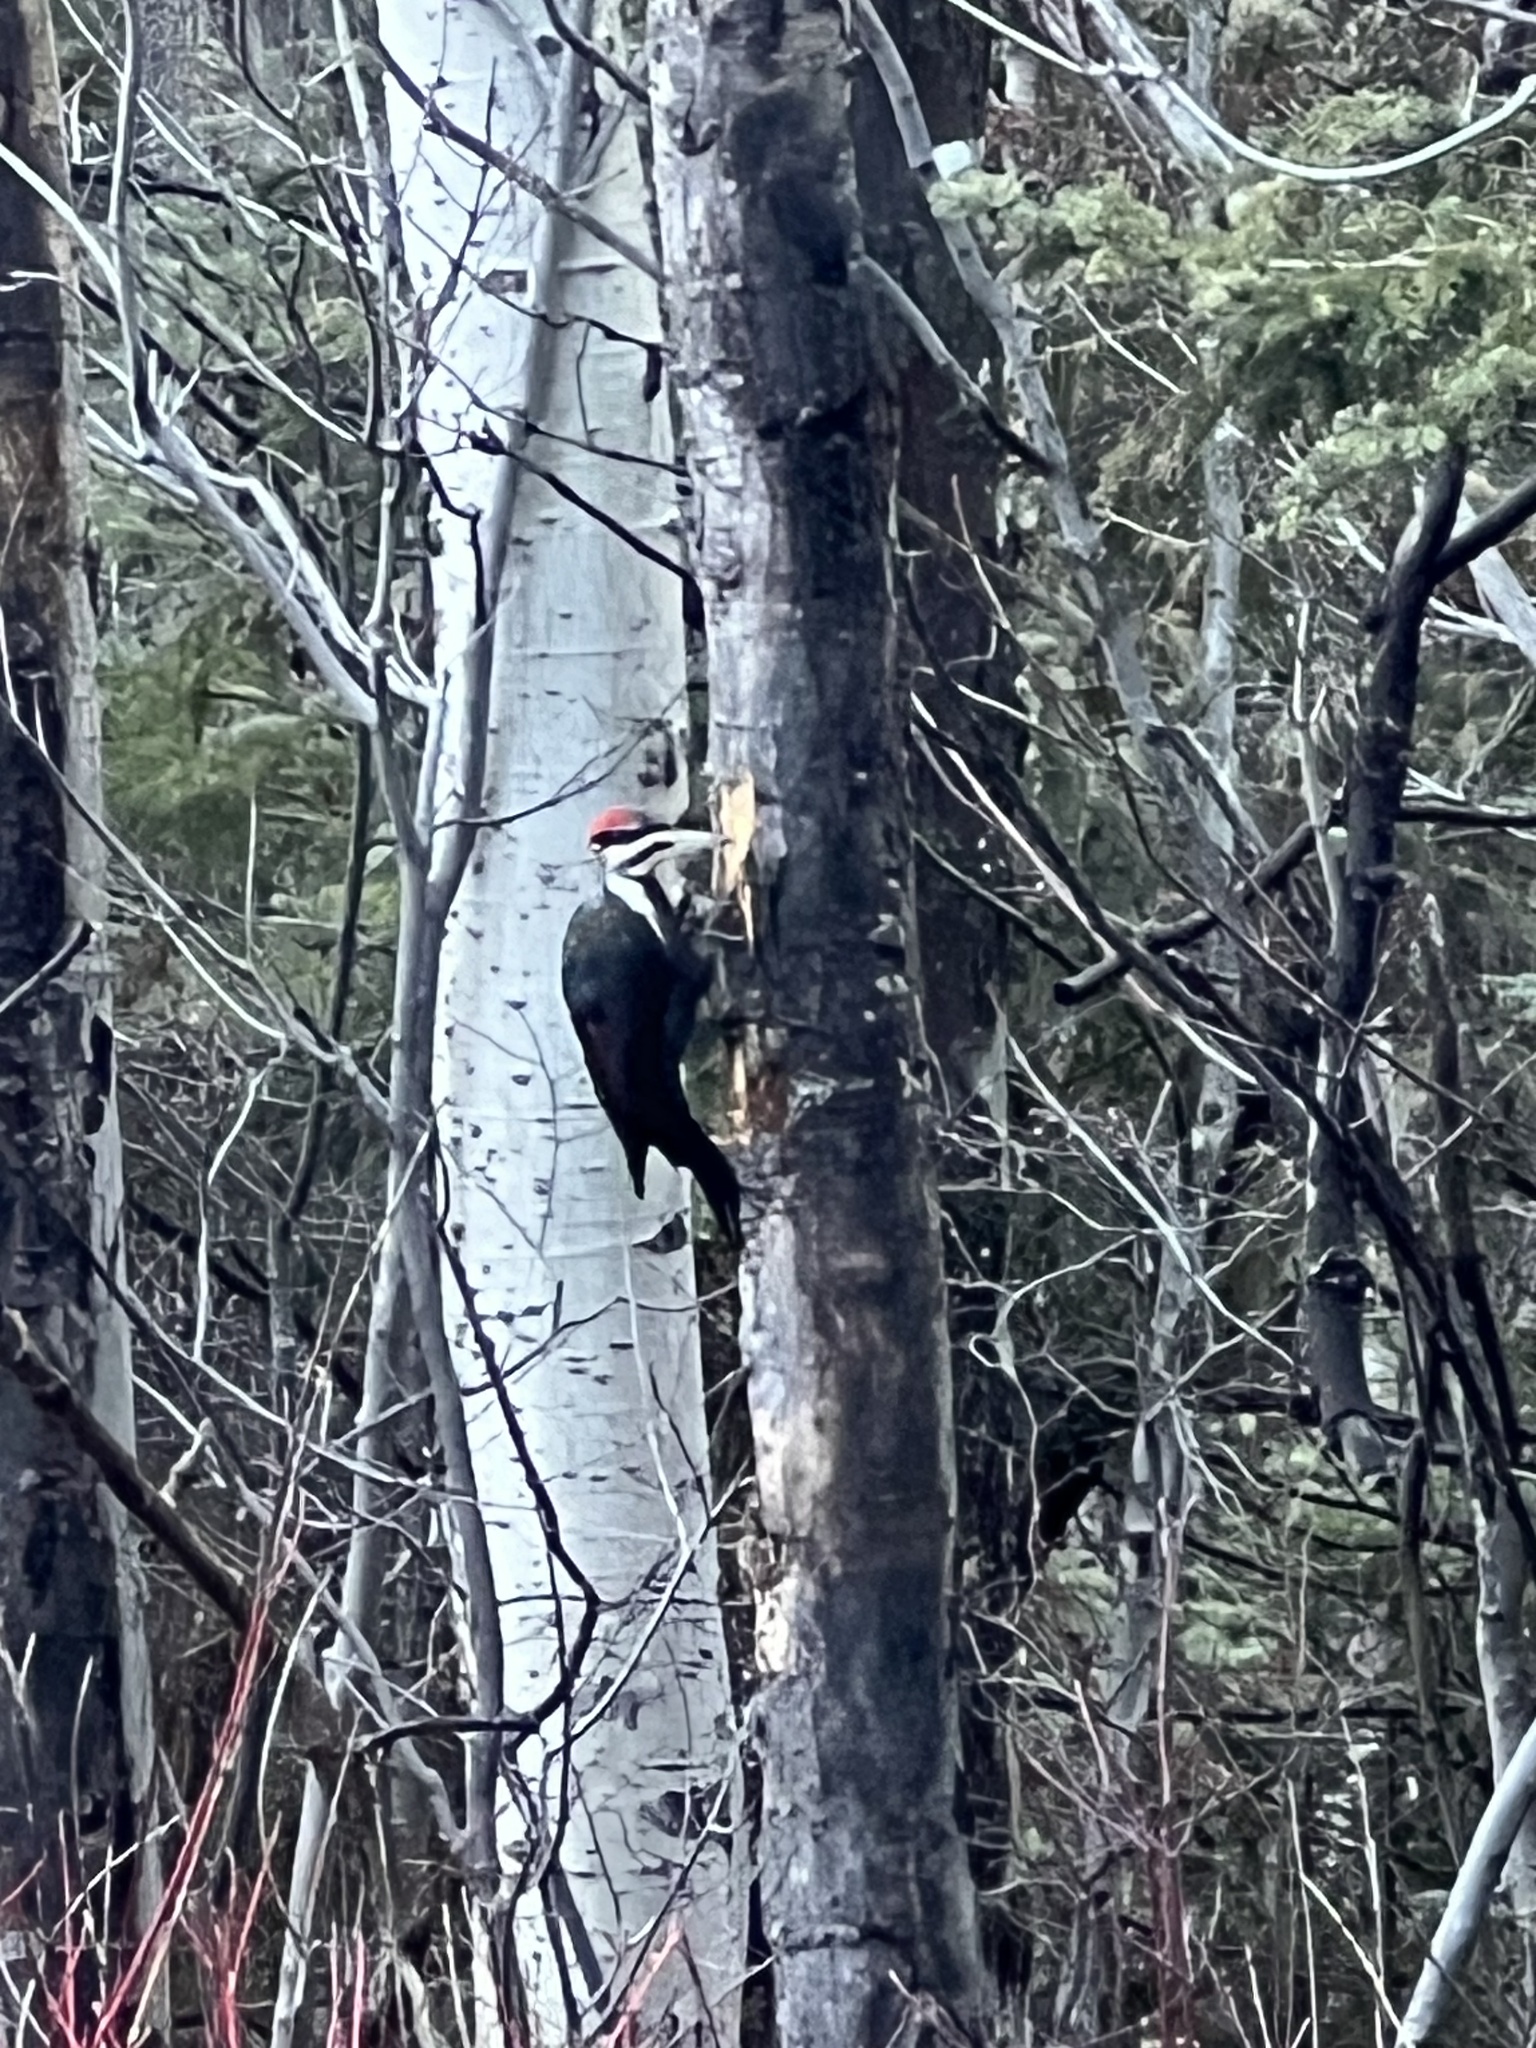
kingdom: Animalia
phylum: Chordata
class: Aves
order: Piciformes
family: Picidae
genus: Dryocopus
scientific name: Dryocopus pileatus
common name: Pileated woodpecker
